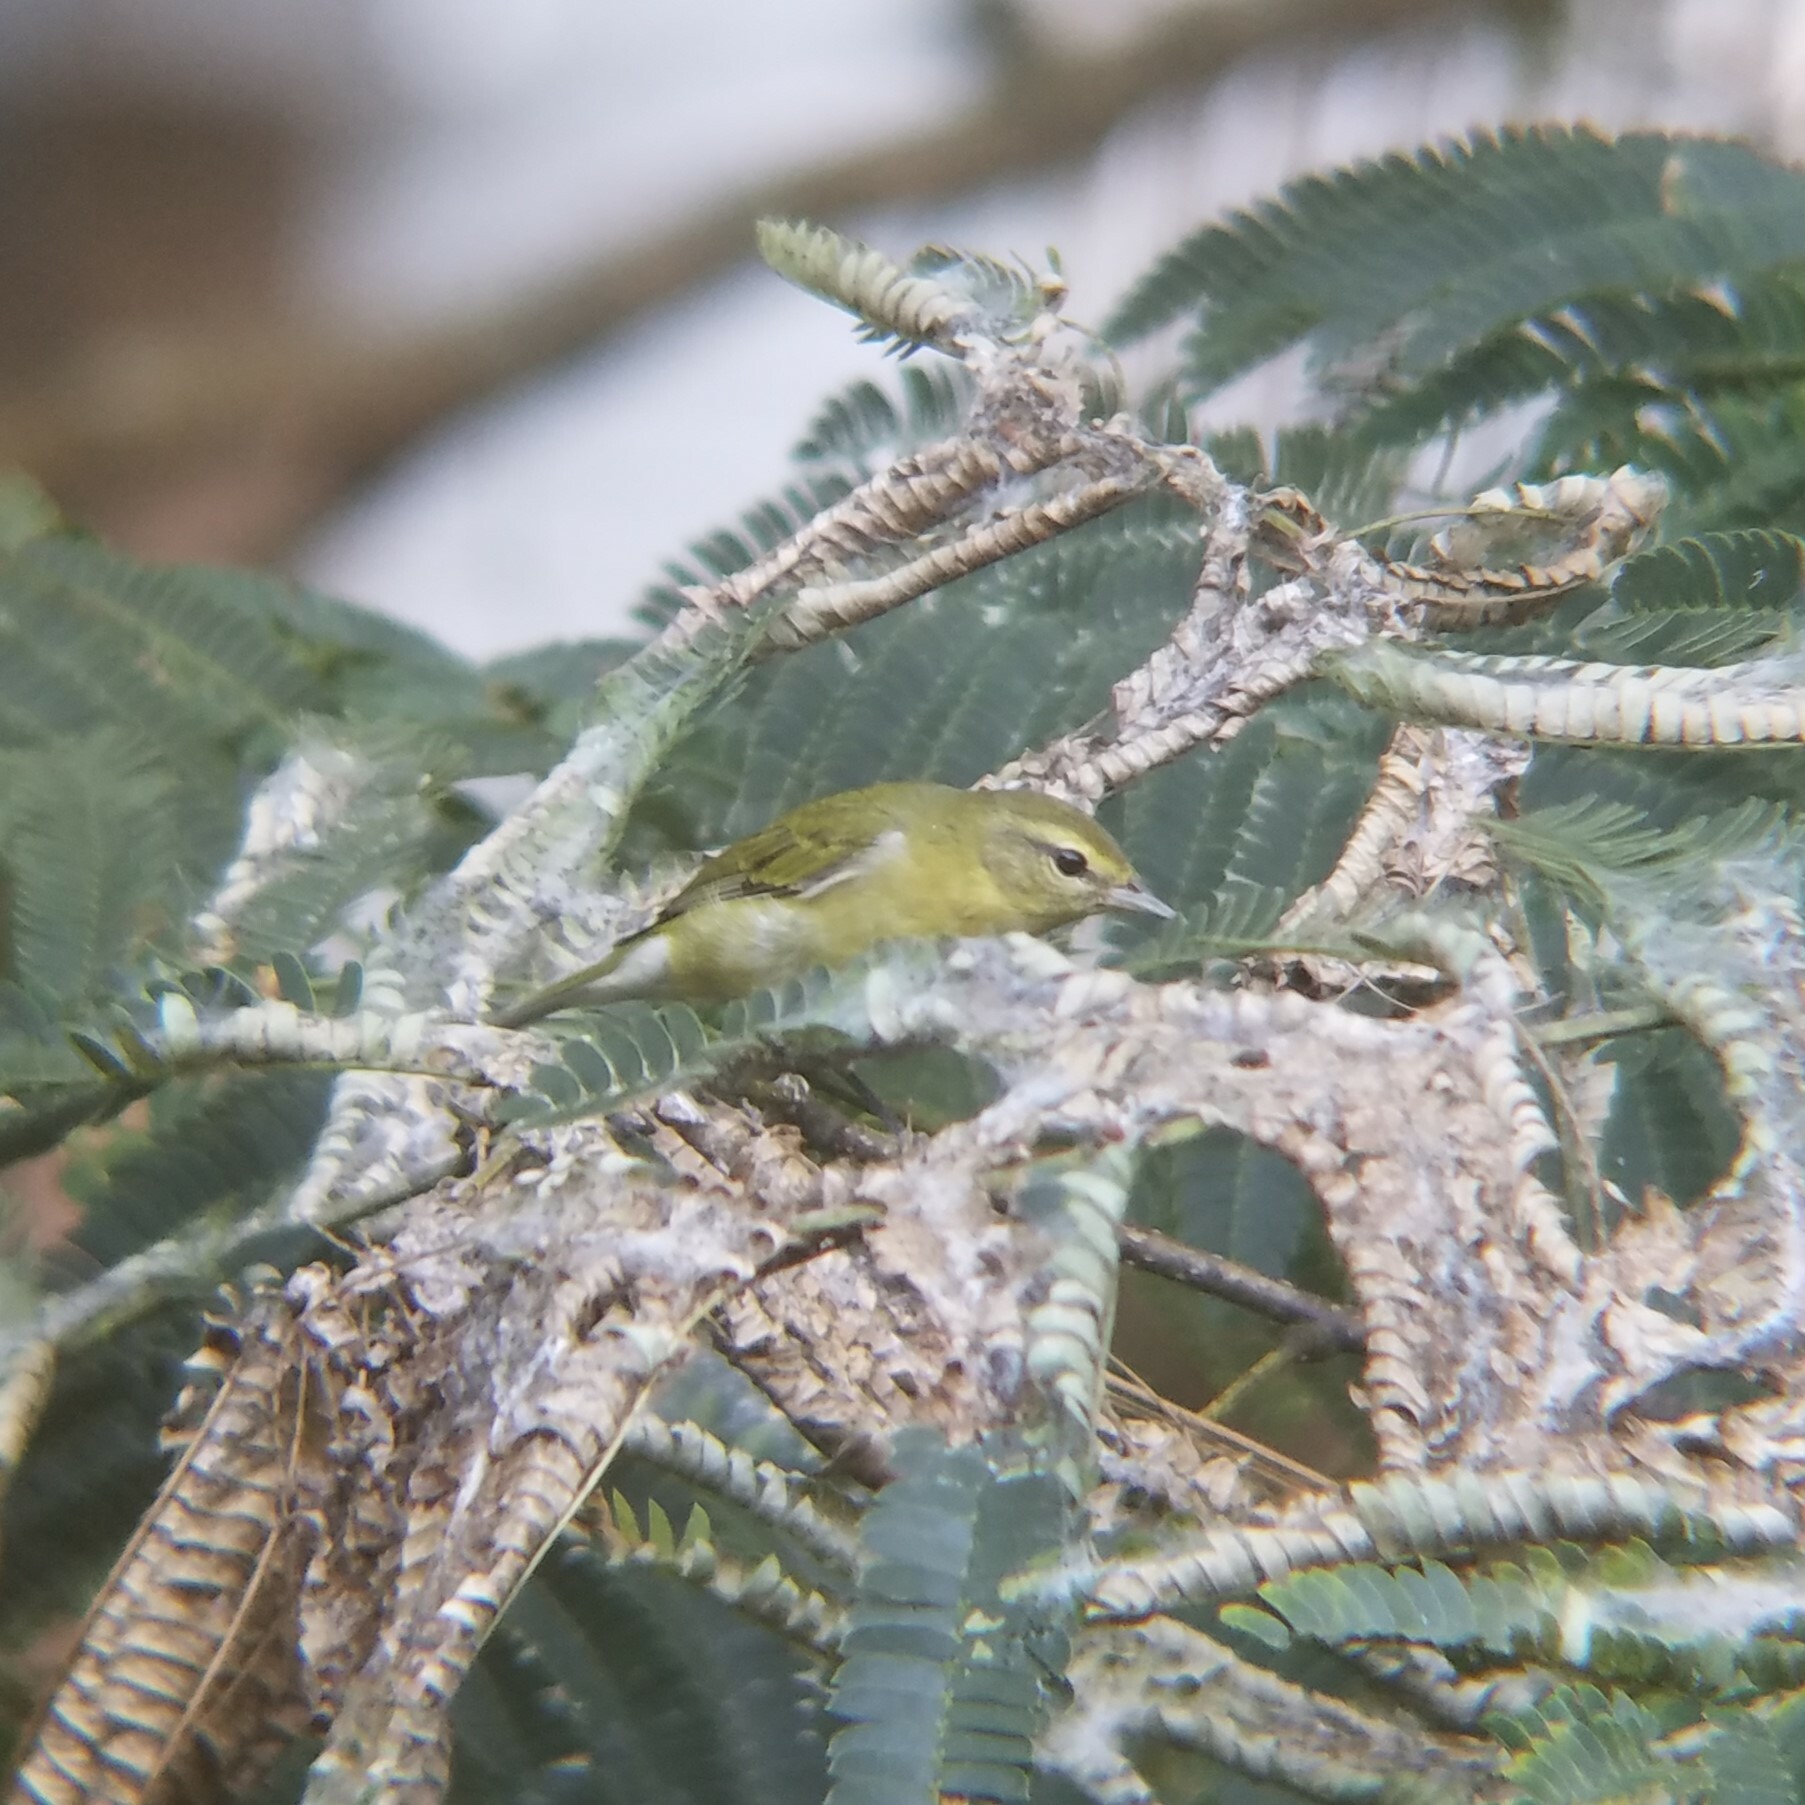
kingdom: Animalia
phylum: Chordata
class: Aves
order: Passeriformes
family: Parulidae
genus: Leiothlypis
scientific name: Leiothlypis peregrina
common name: Tennessee warbler
